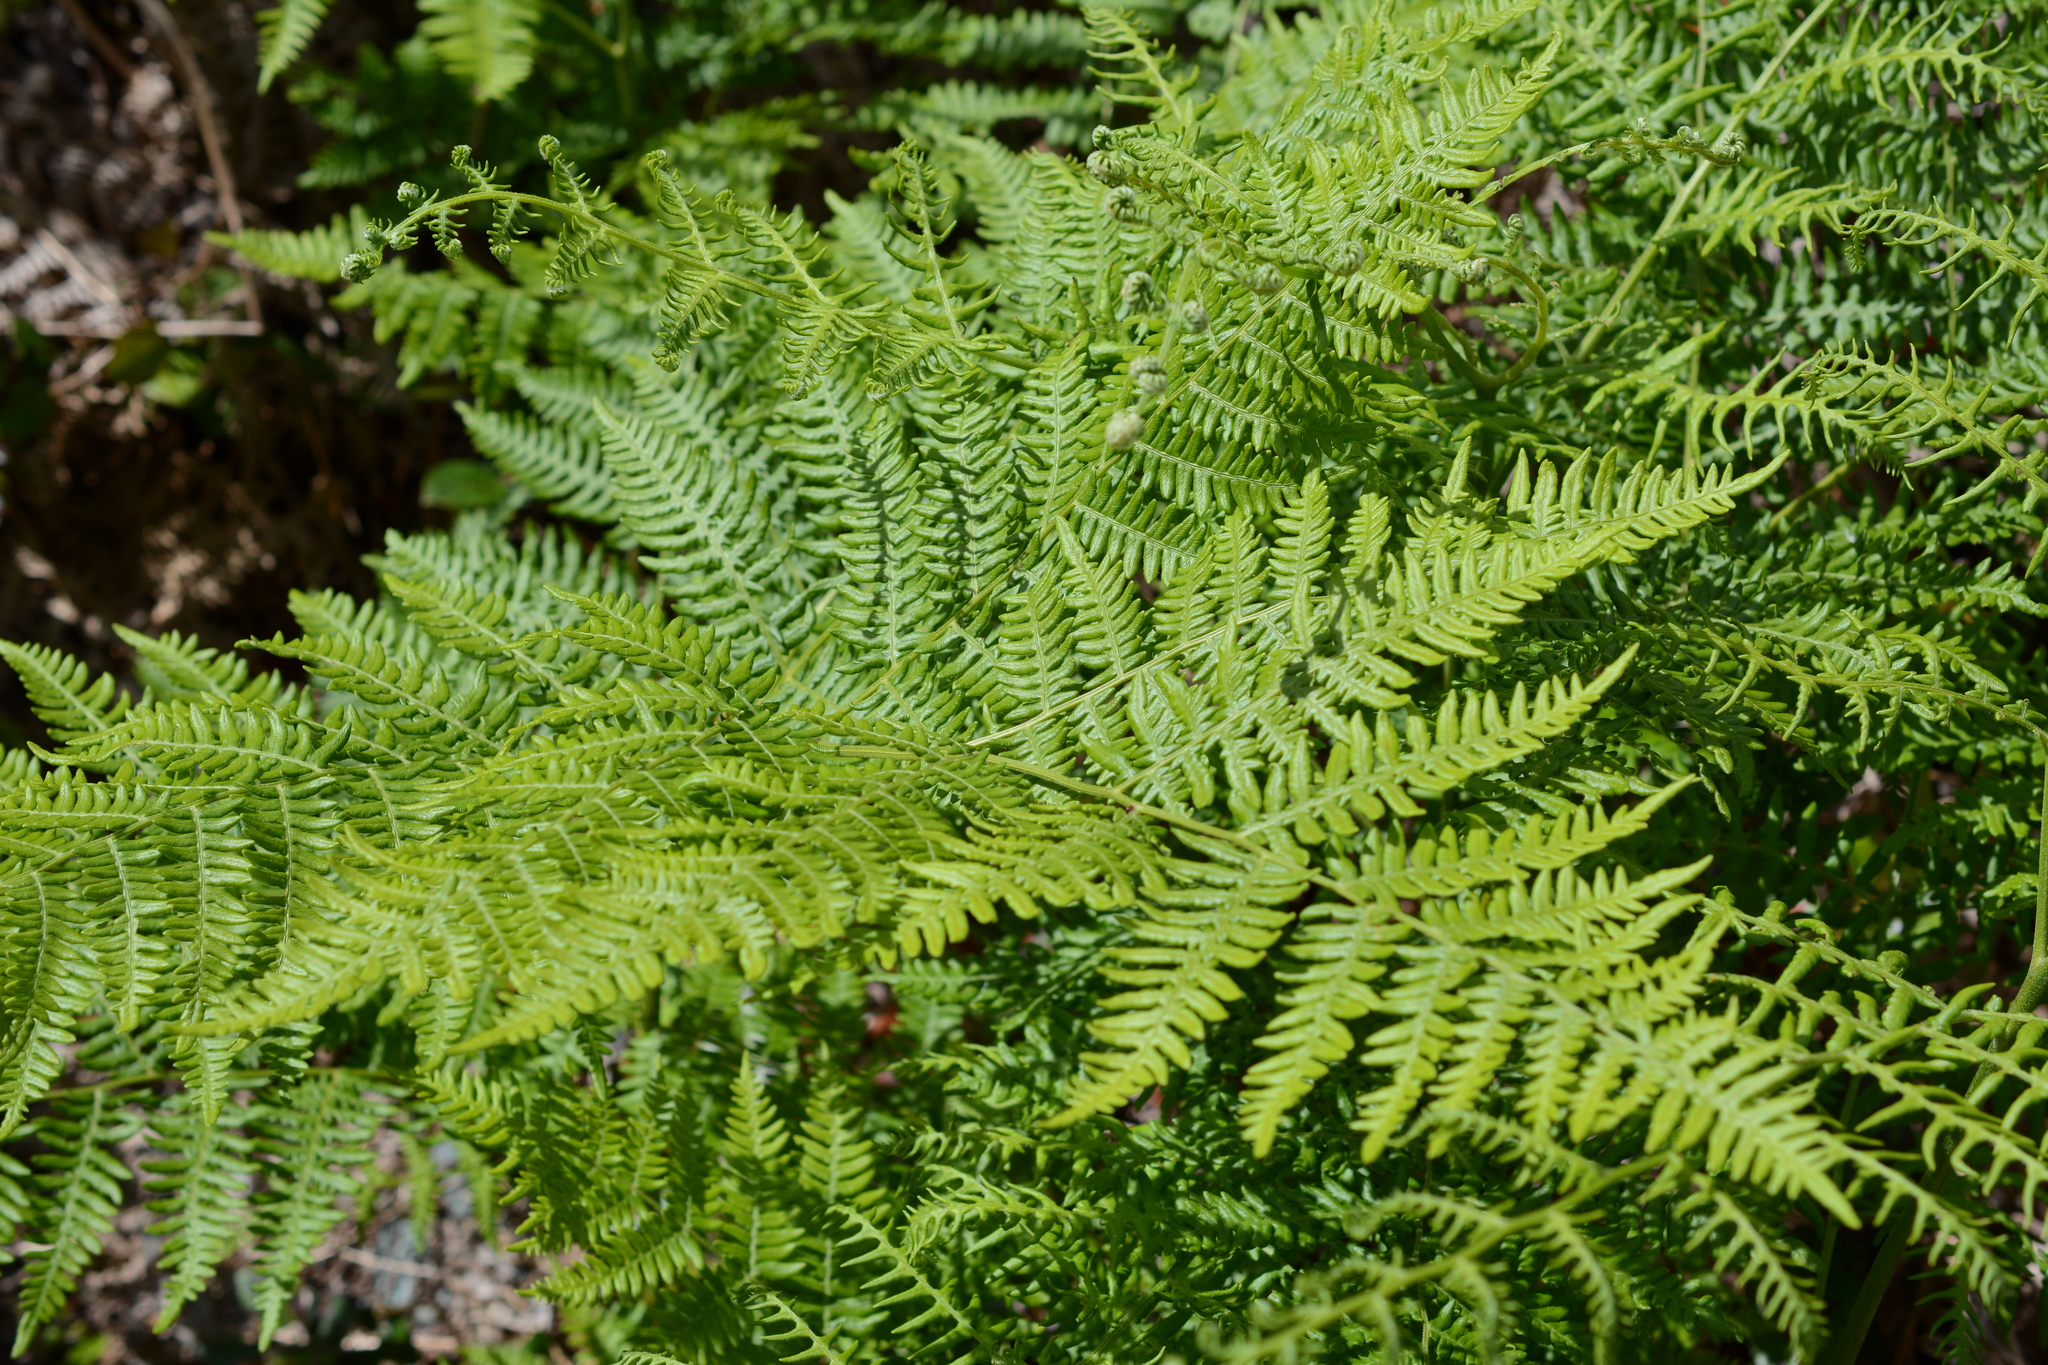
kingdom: Plantae
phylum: Tracheophyta
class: Polypodiopsida
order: Polypodiales
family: Dennstaedtiaceae
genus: Pteridium
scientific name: Pteridium aquilinum
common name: Bracken
